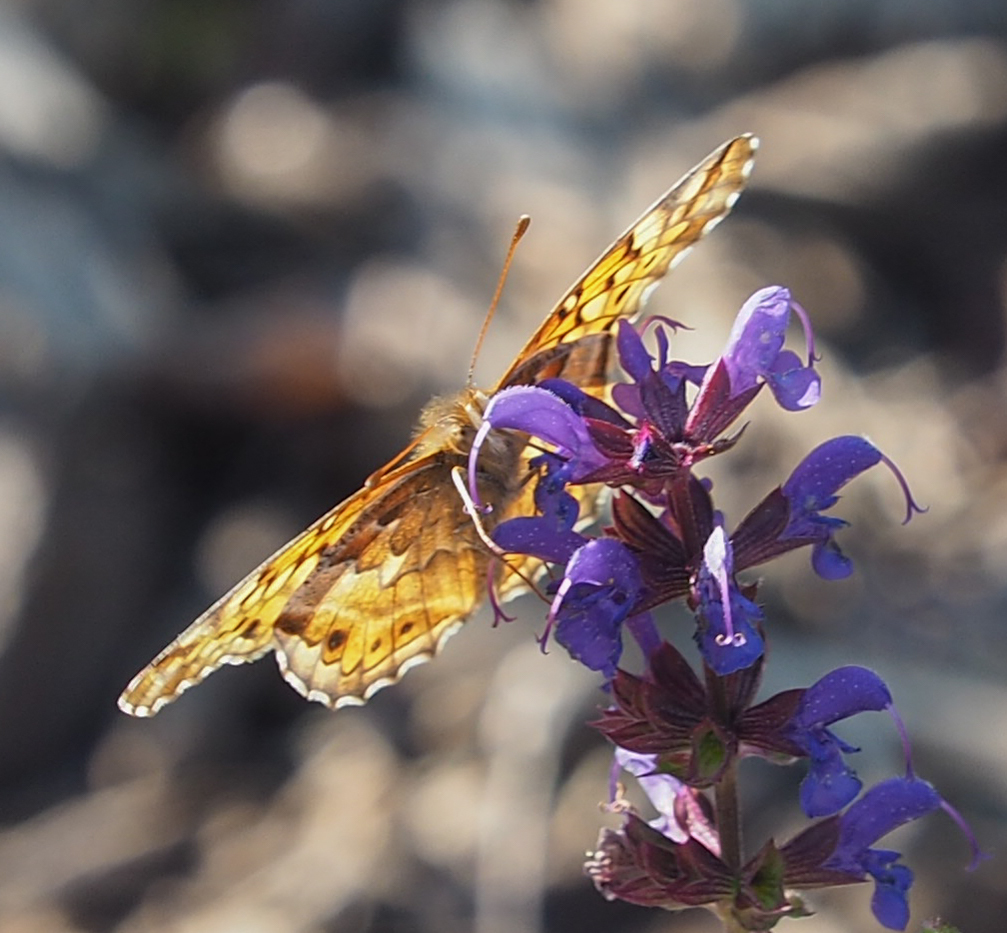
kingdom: Animalia
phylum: Arthropoda
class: Insecta
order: Lepidoptera
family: Nymphalidae
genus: Euptoieta
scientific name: Euptoieta claudia
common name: Variegated fritillary
